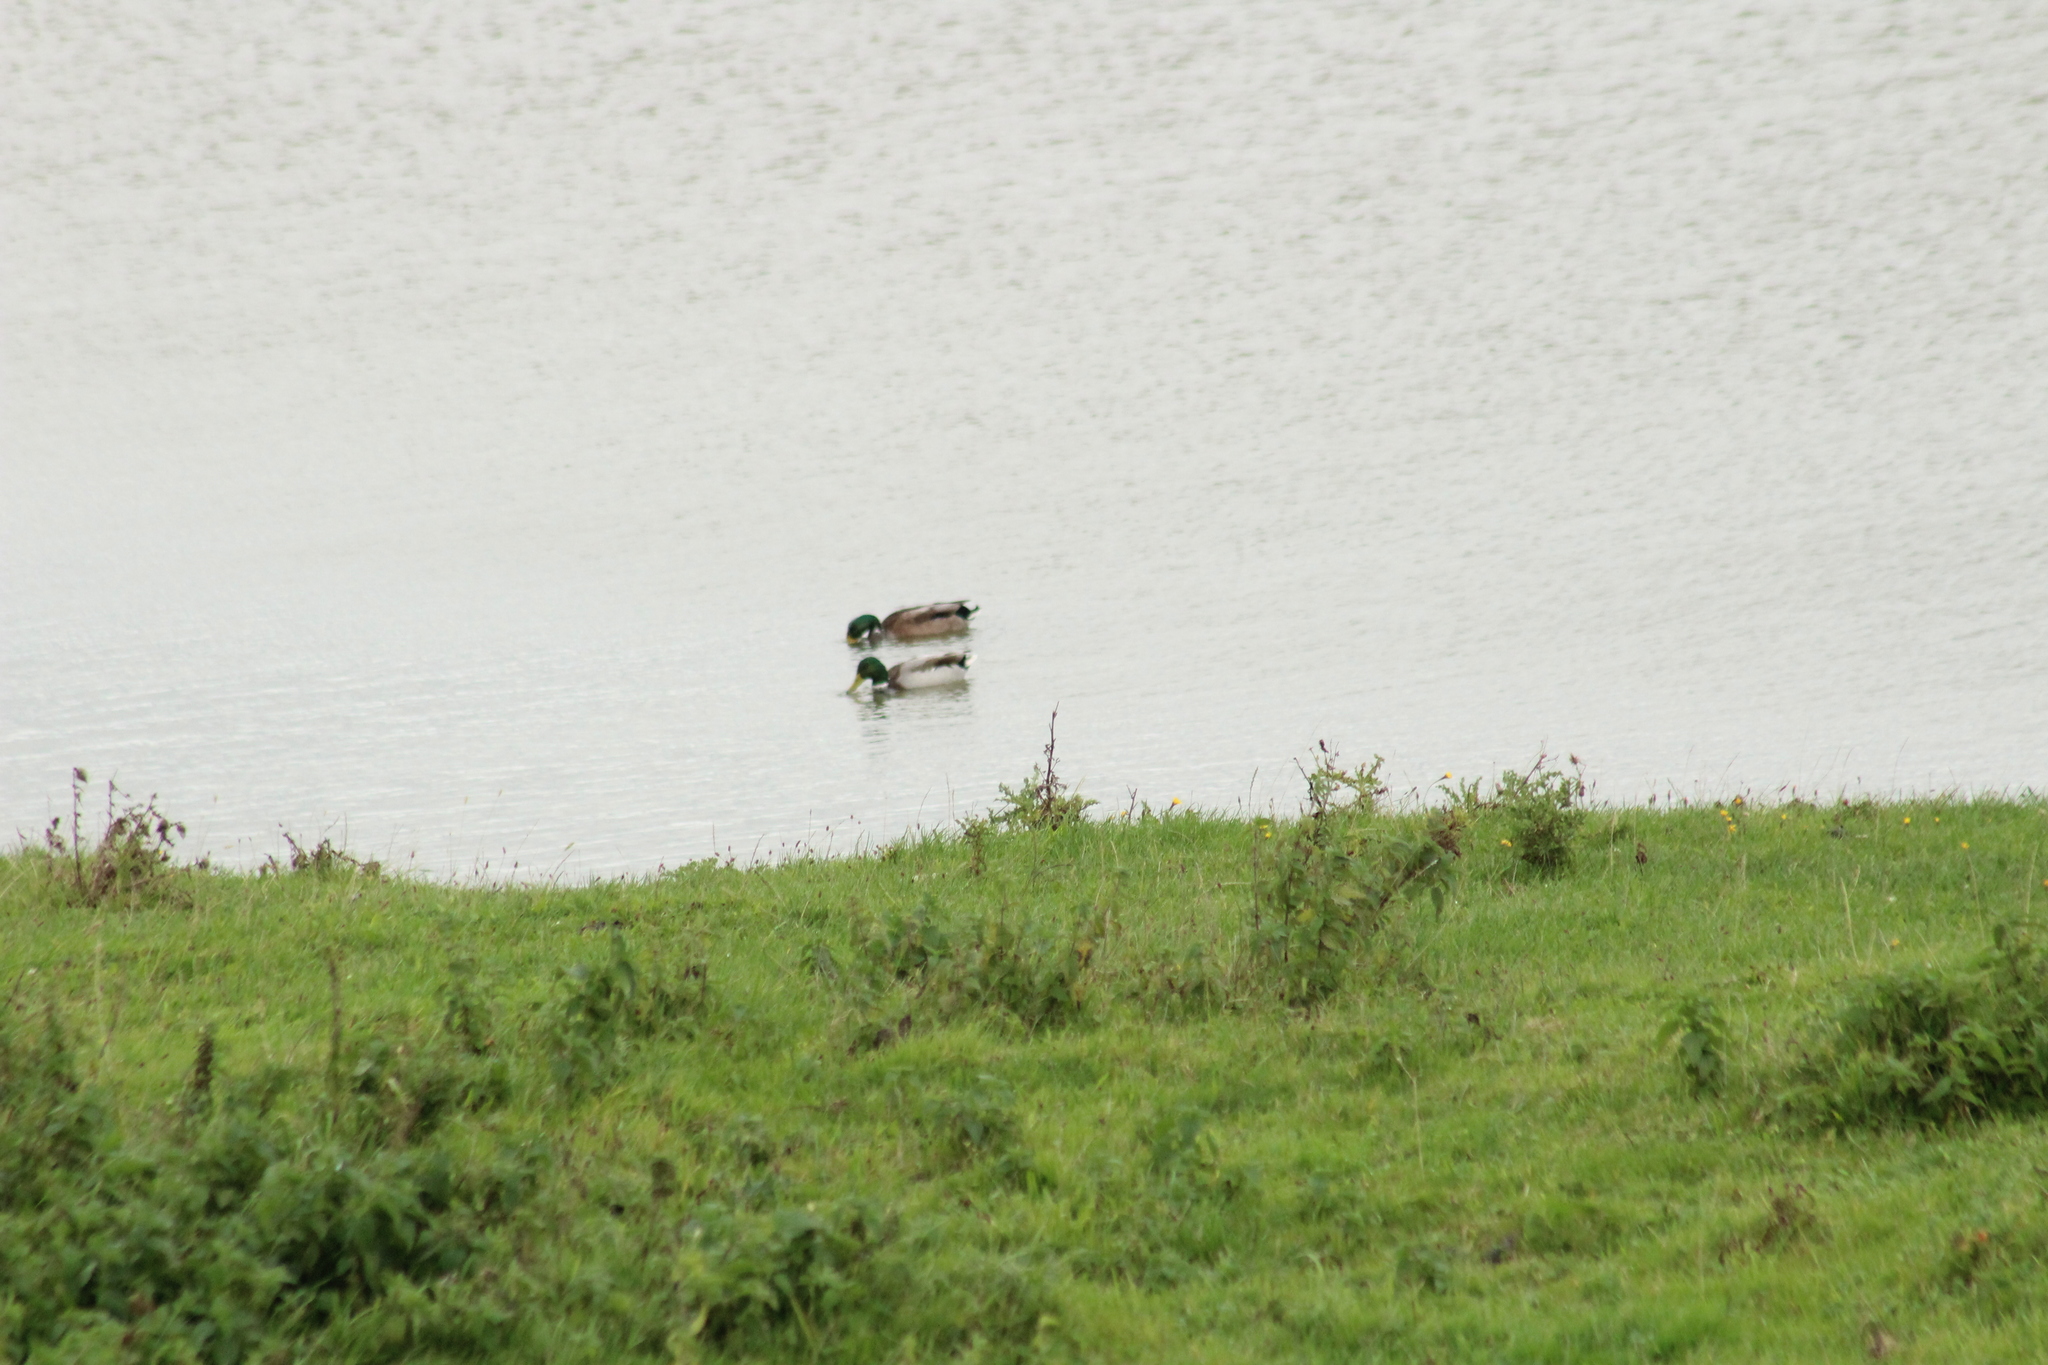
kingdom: Animalia
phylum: Chordata
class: Aves
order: Anseriformes
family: Anatidae
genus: Anas
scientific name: Anas platyrhynchos
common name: Mallard
